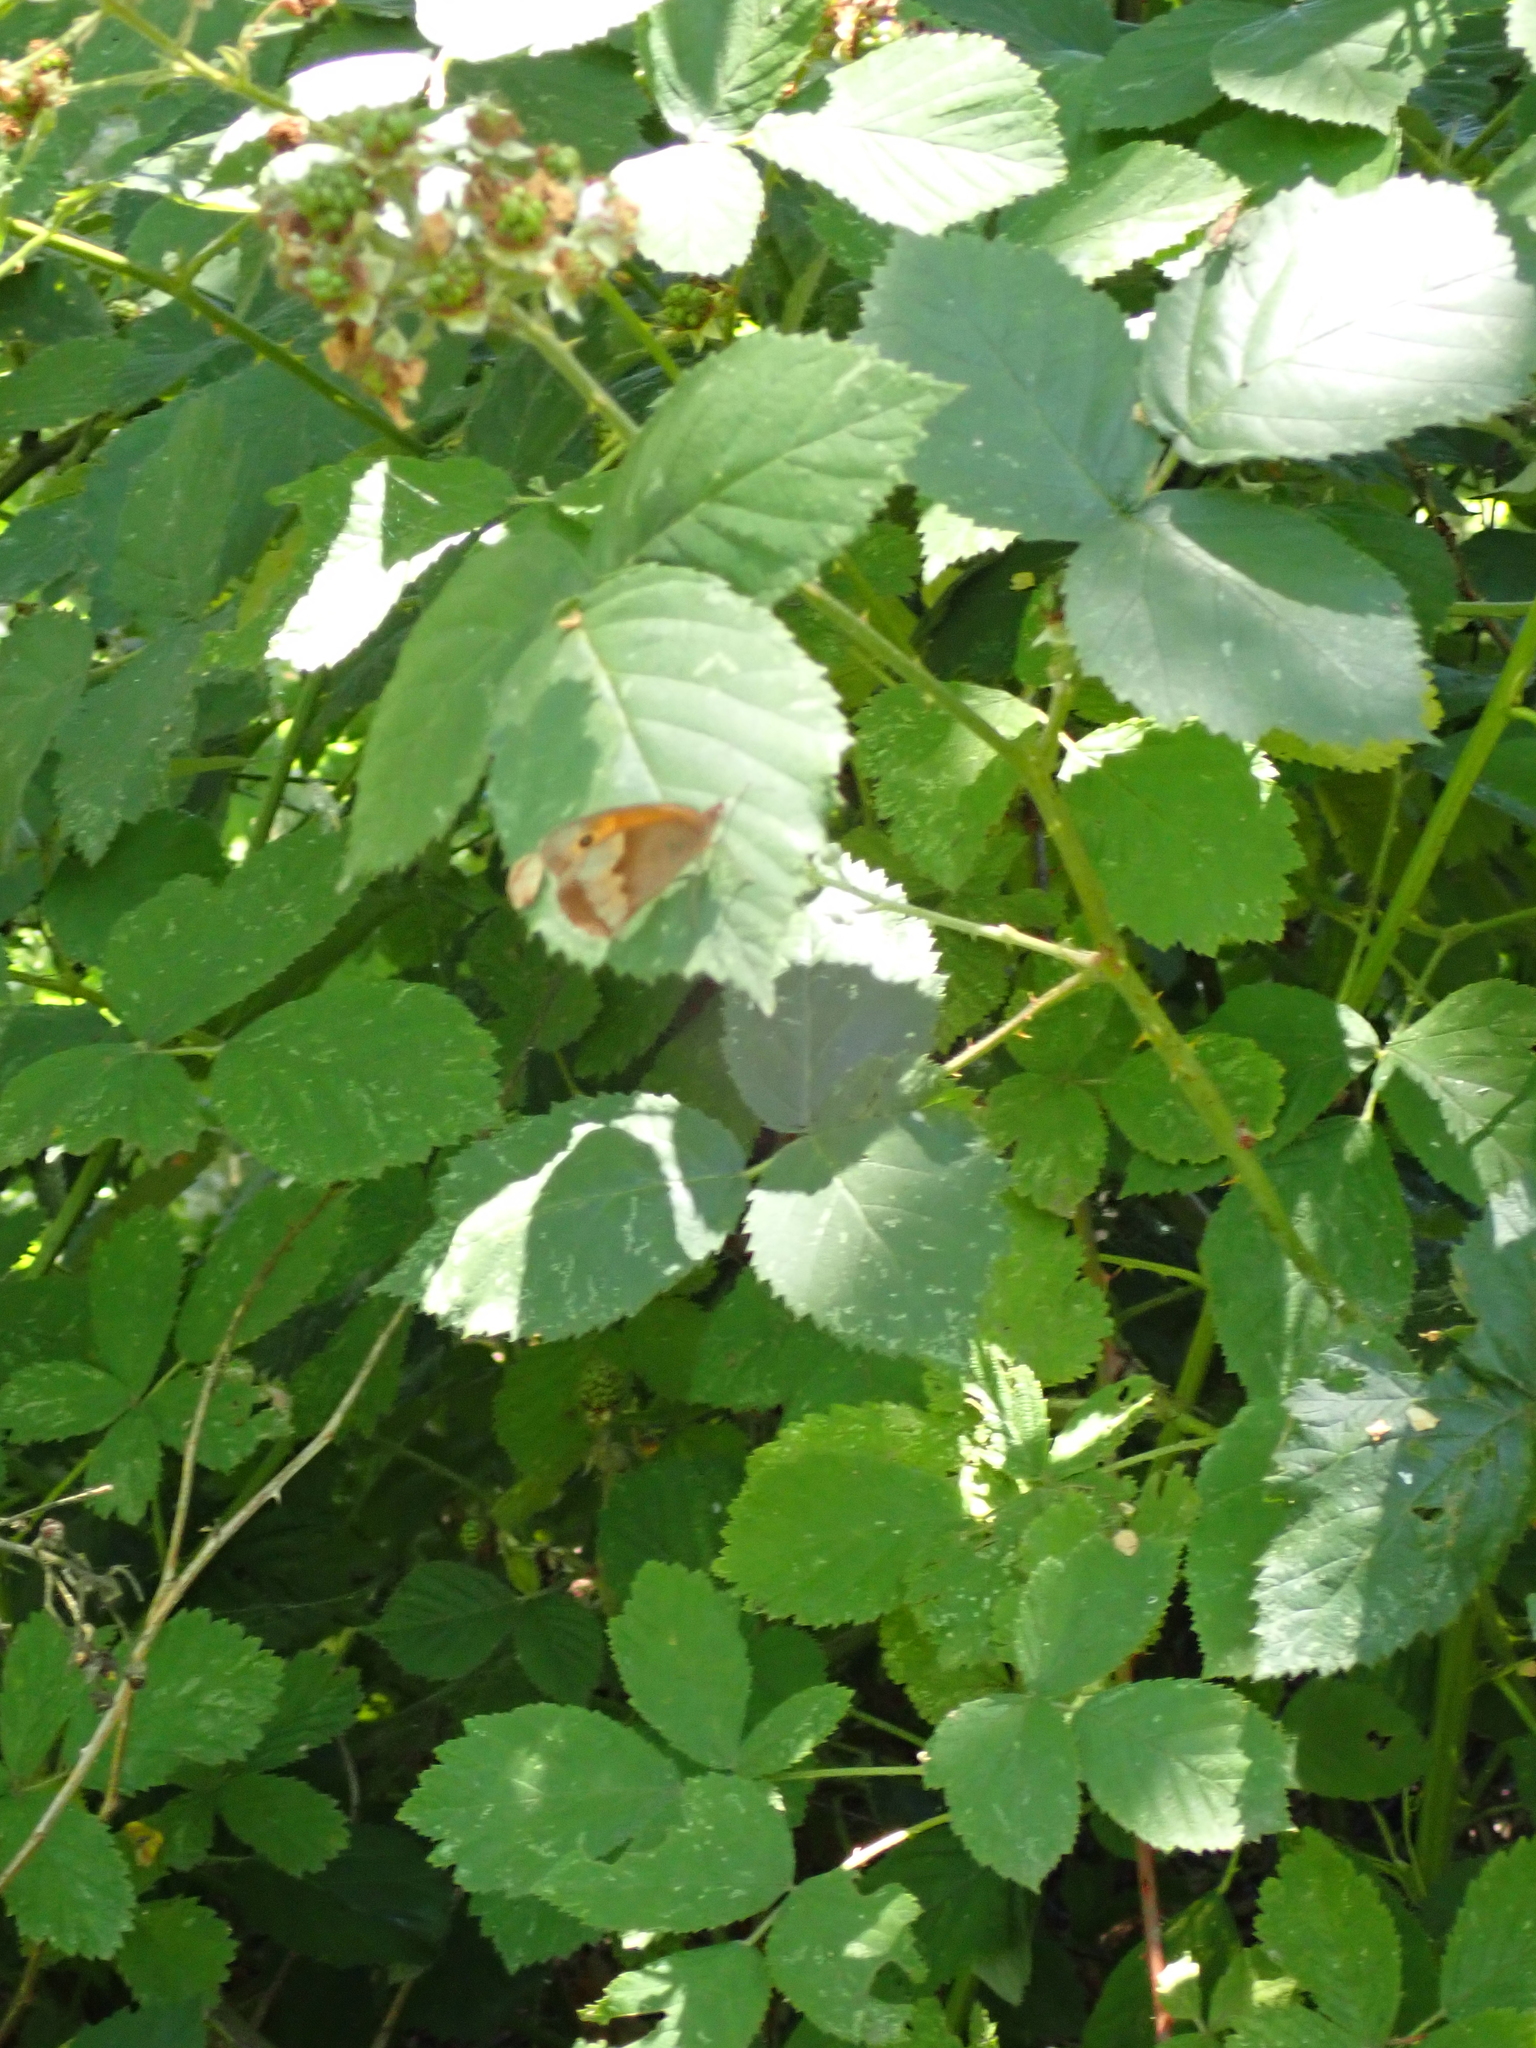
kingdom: Animalia
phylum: Arthropoda
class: Insecta
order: Lepidoptera
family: Nymphalidae
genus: Maniola
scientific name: Maniola jurtina
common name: Meadow brown
